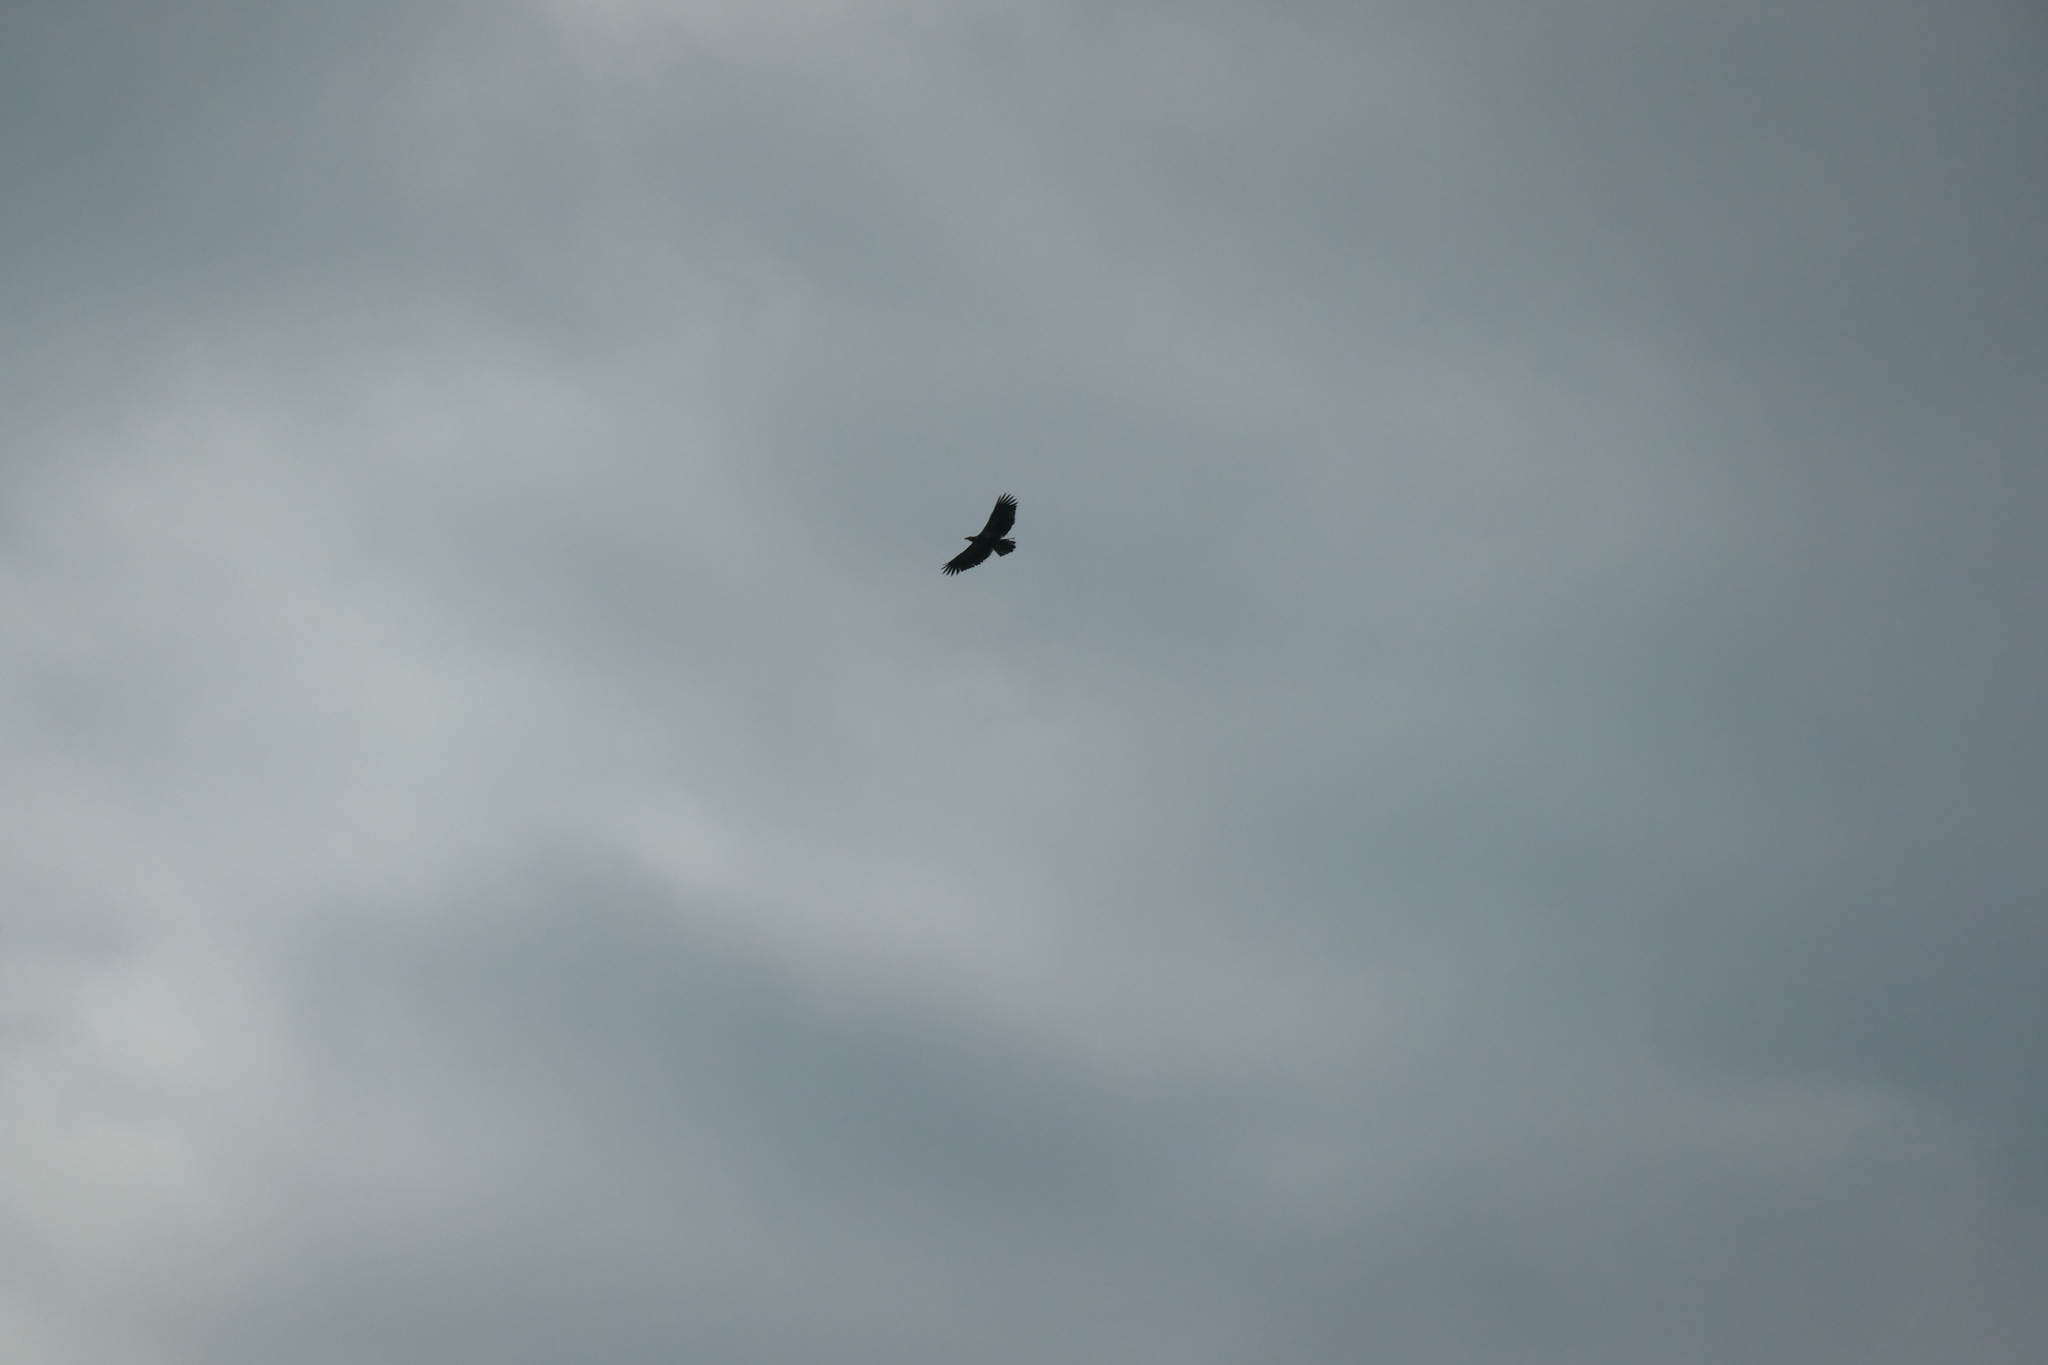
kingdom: Animalia
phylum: Chordata
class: Aves
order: Accipitriformes
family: Accipitridae
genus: Haliaeetus
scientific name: Haliaeetus leucocephalus
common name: Bald eagle
